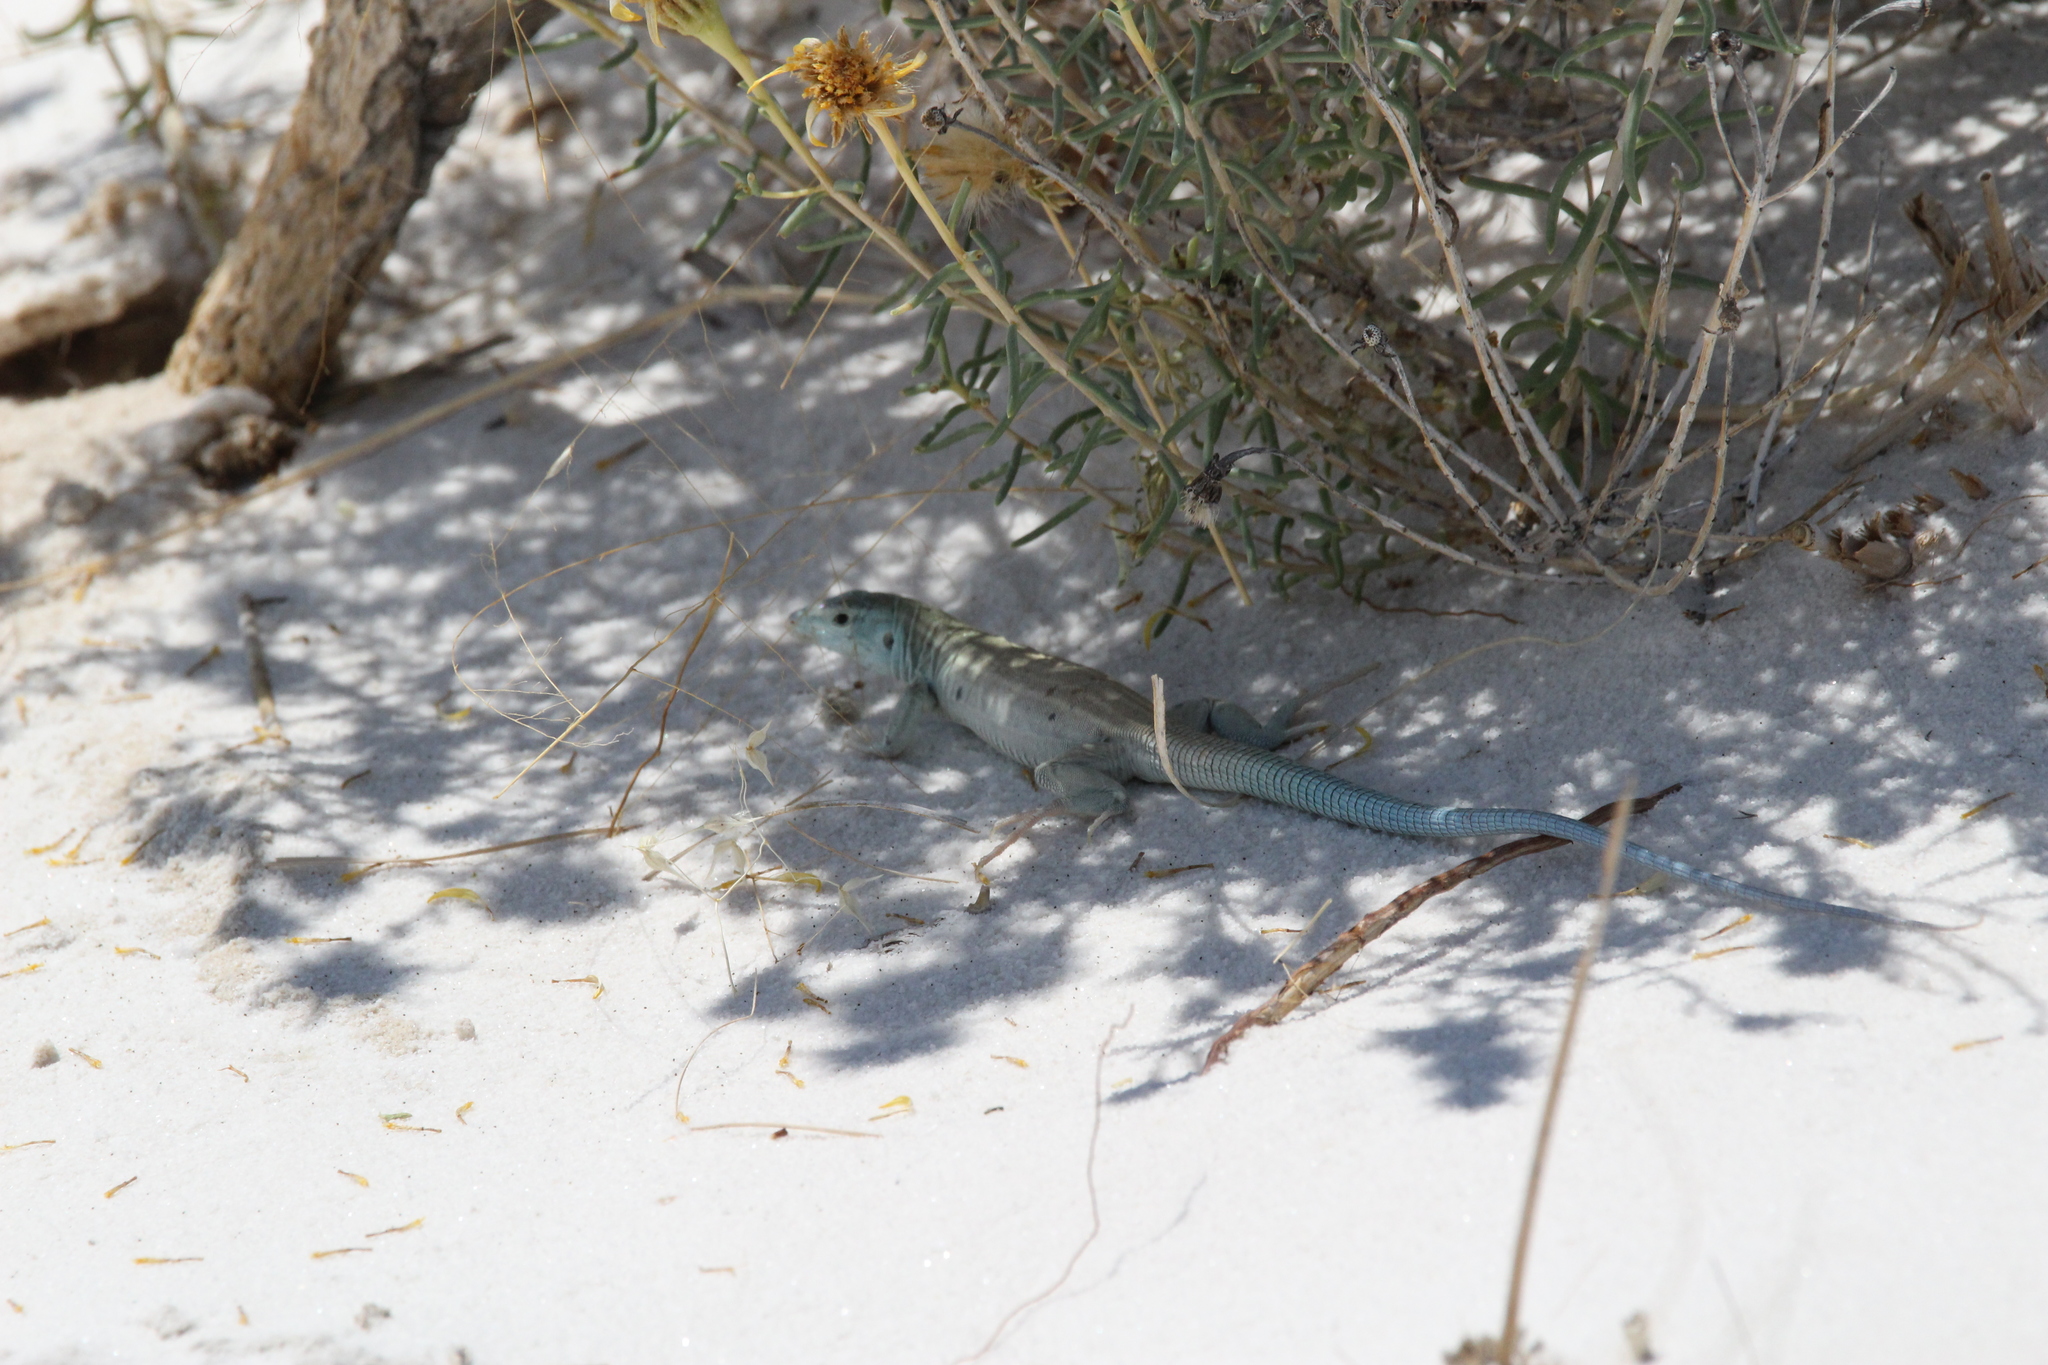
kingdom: Animalia
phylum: Chordata
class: Squamata
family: Teiidae
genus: Aspidoscelis
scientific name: Aspidoscelis inornatus
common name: Little striped whiptail
